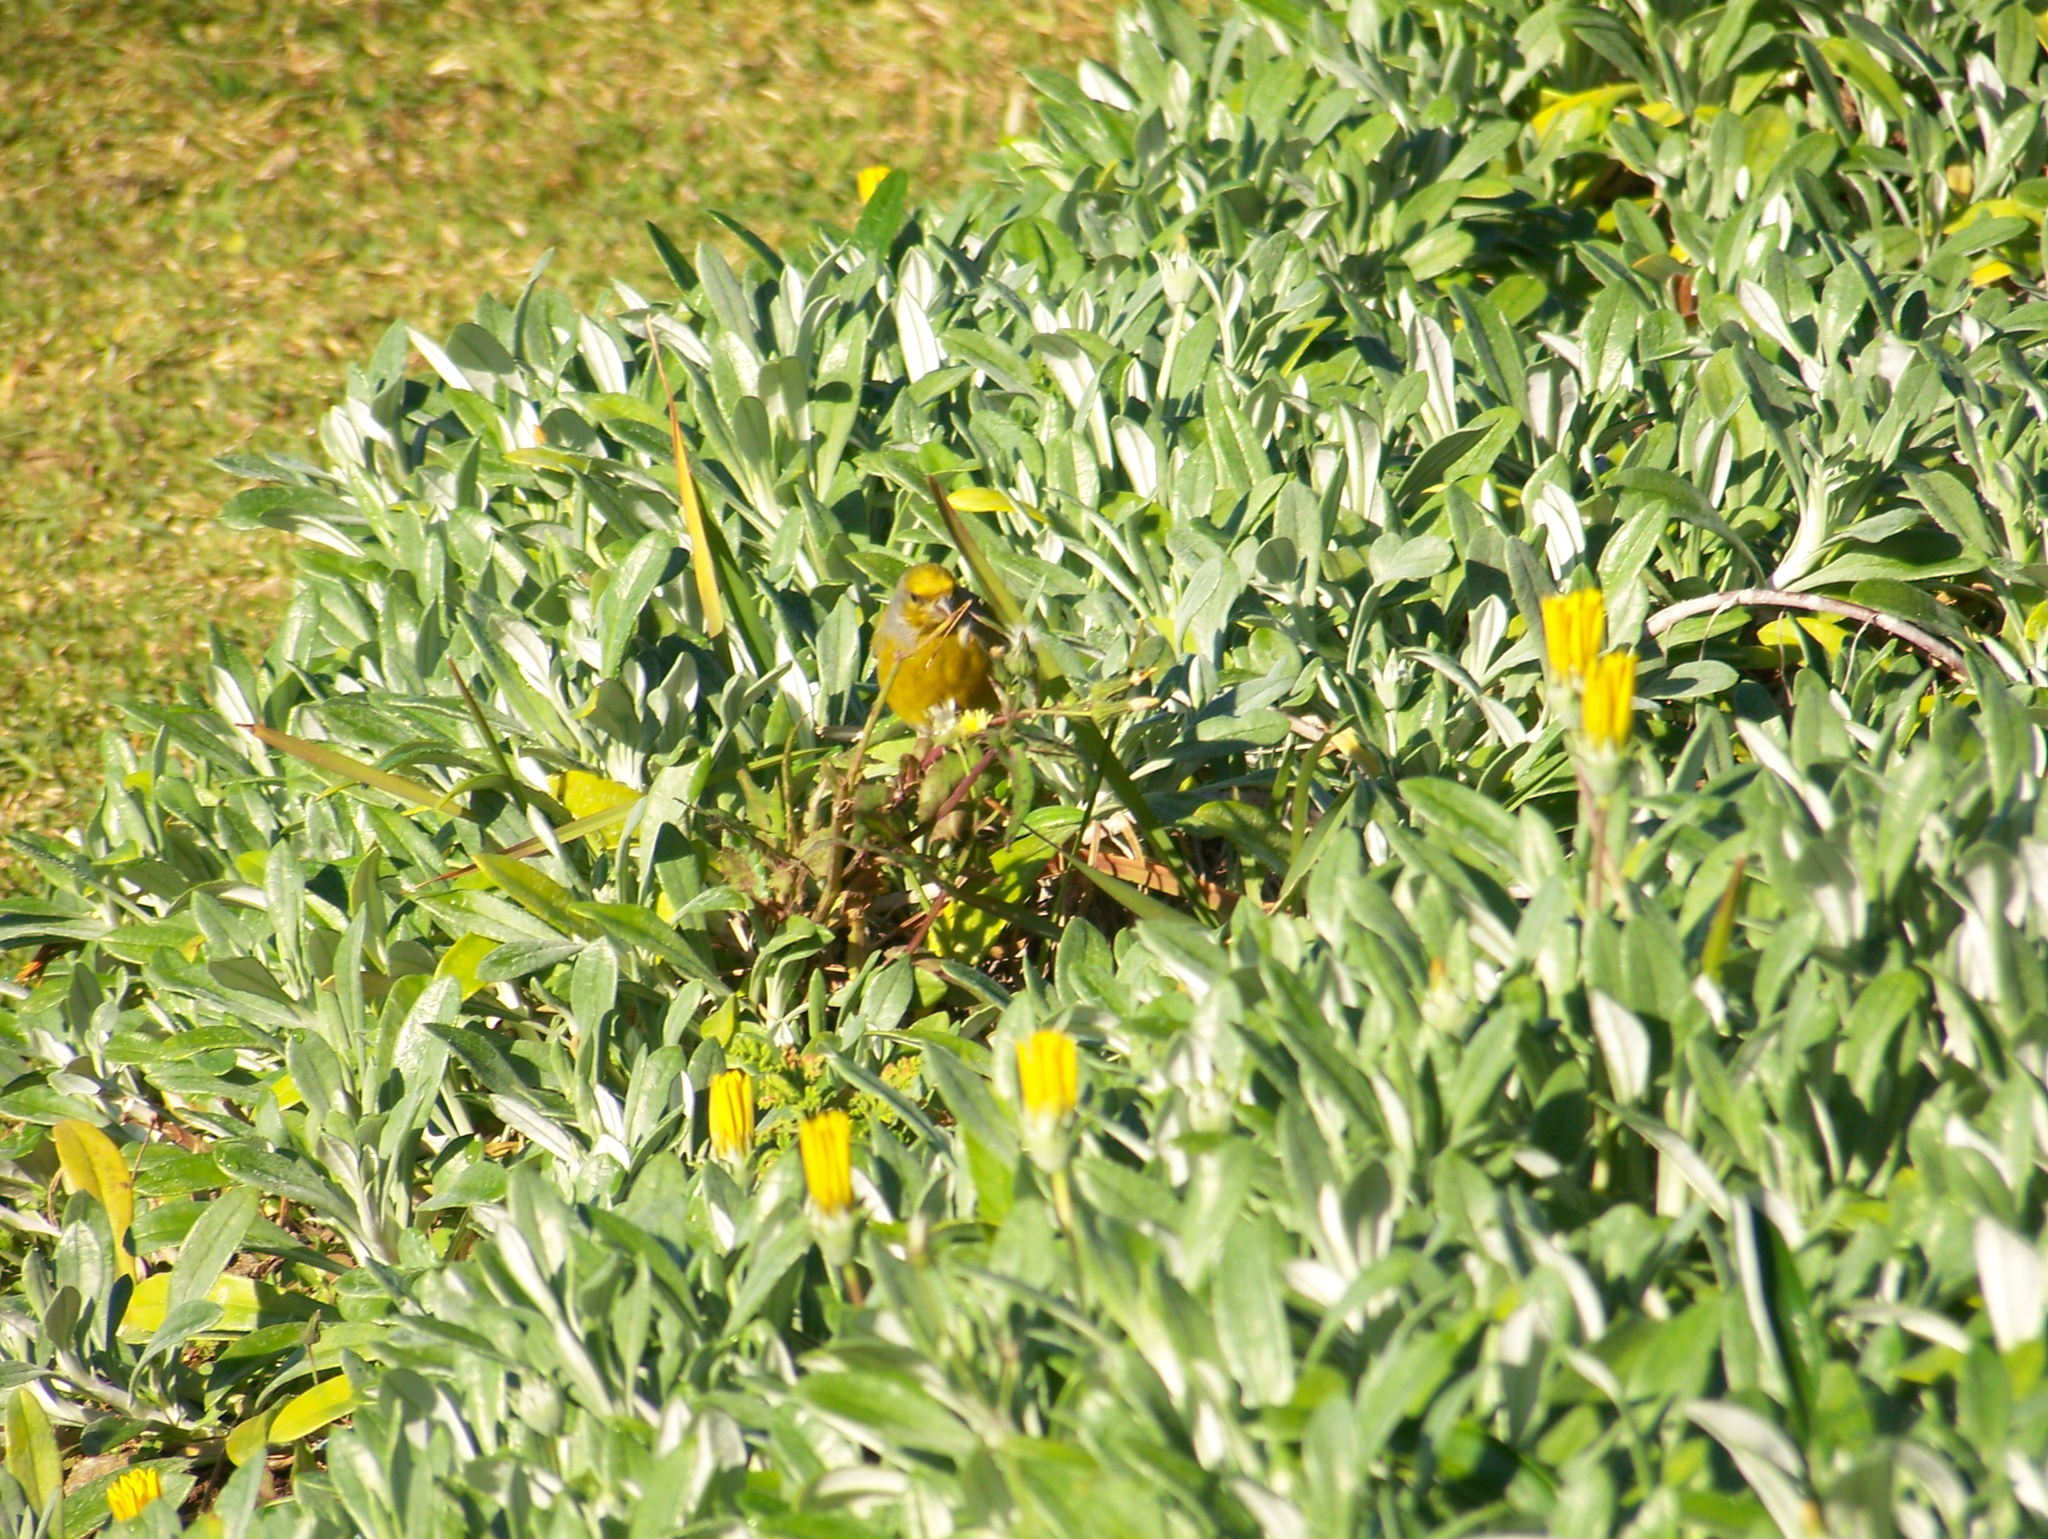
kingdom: Animalia
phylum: Chordata
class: Aves
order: Passeriformes
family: Fringillidae
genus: Serinus
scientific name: Serinus canicollis
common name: Cape canary
